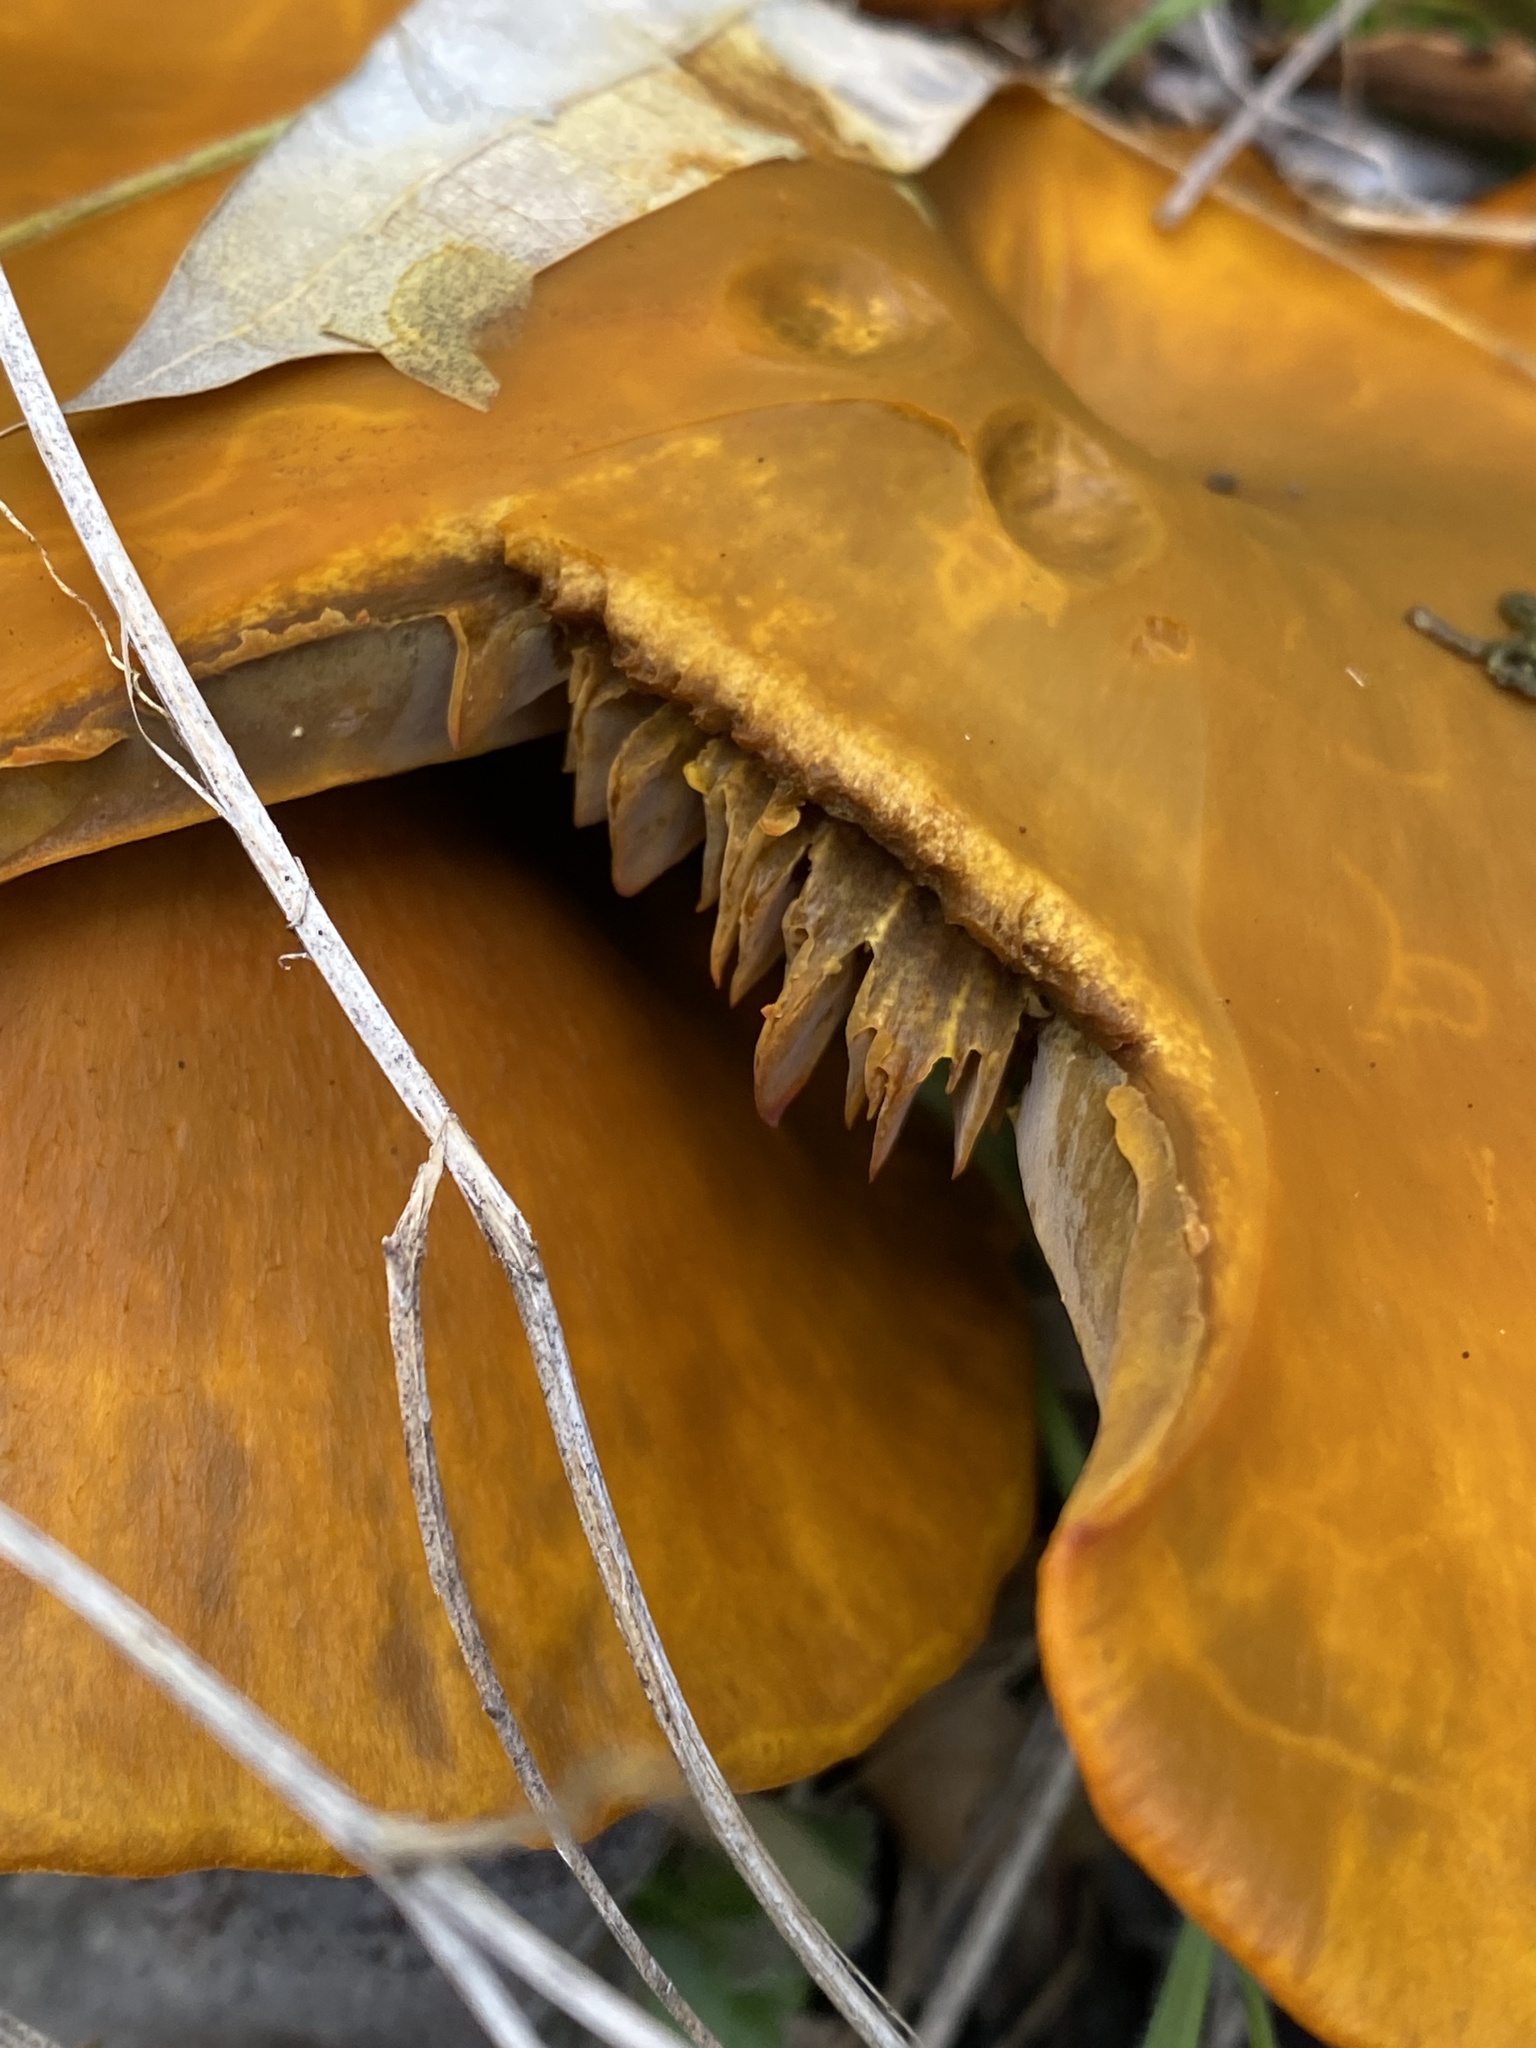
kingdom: Fungi
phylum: Basidiomycota
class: Agaricomycetes
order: Agaricales
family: Omphalotaceae
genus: Omphalotus
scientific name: Omphalotus olivascens
